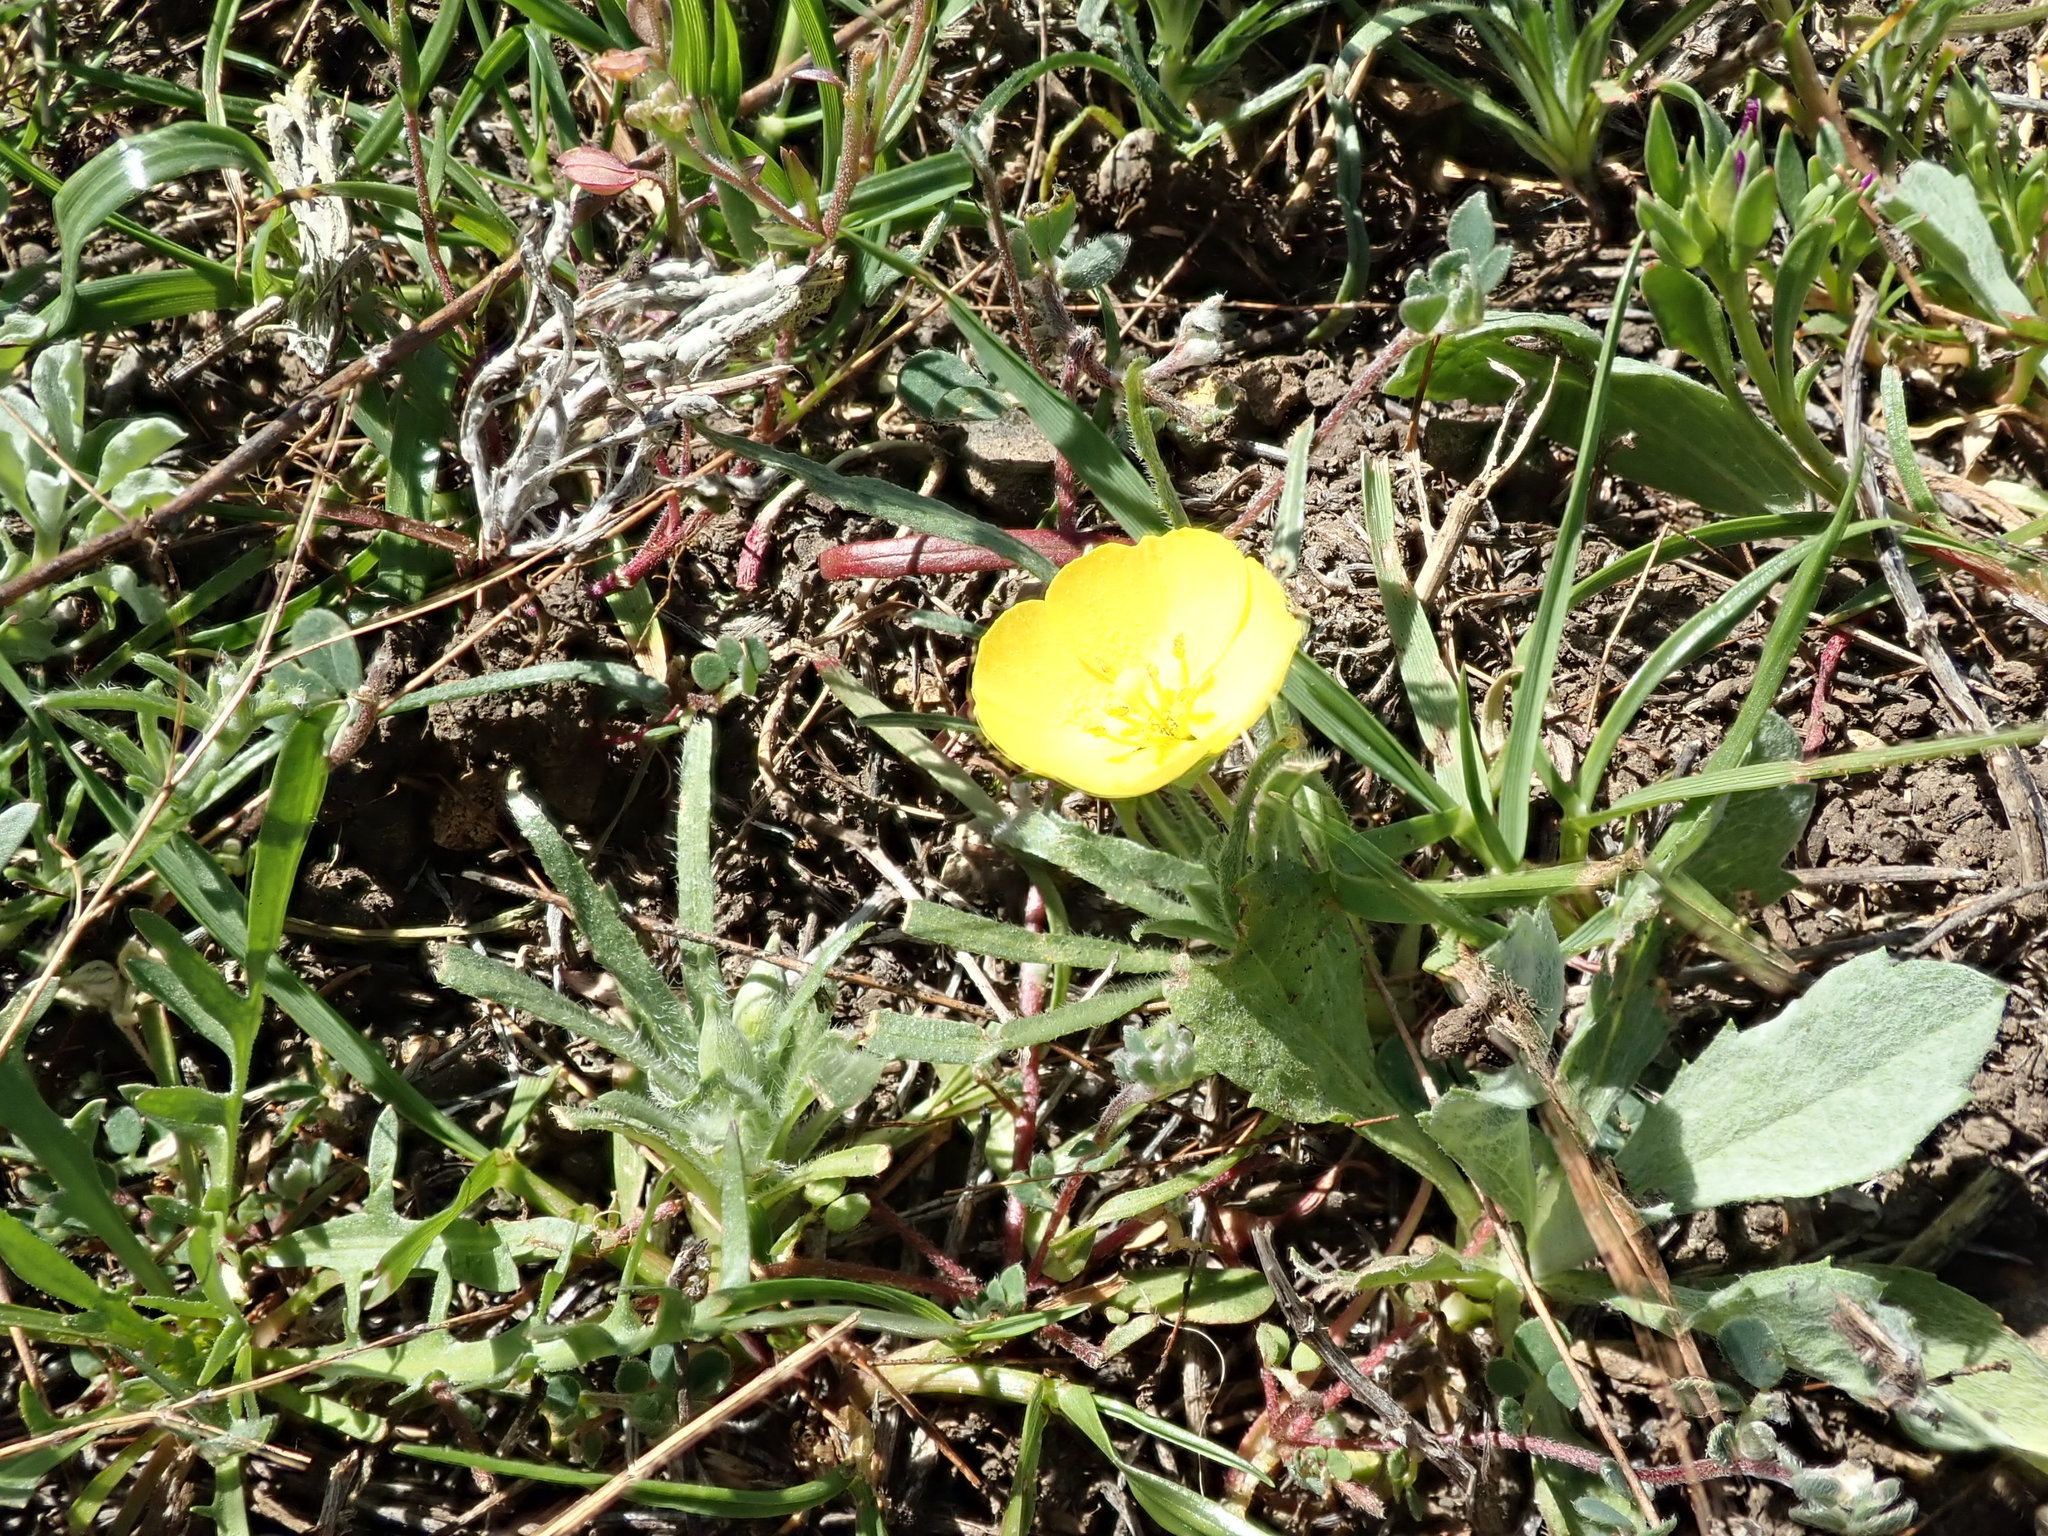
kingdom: Plantae
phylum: Tracheophyta
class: Magnoliopsida
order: Myrtales
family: Onagraceae
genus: Tetrapteron
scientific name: Tetrapteron graciliflorum
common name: Hill suncup
